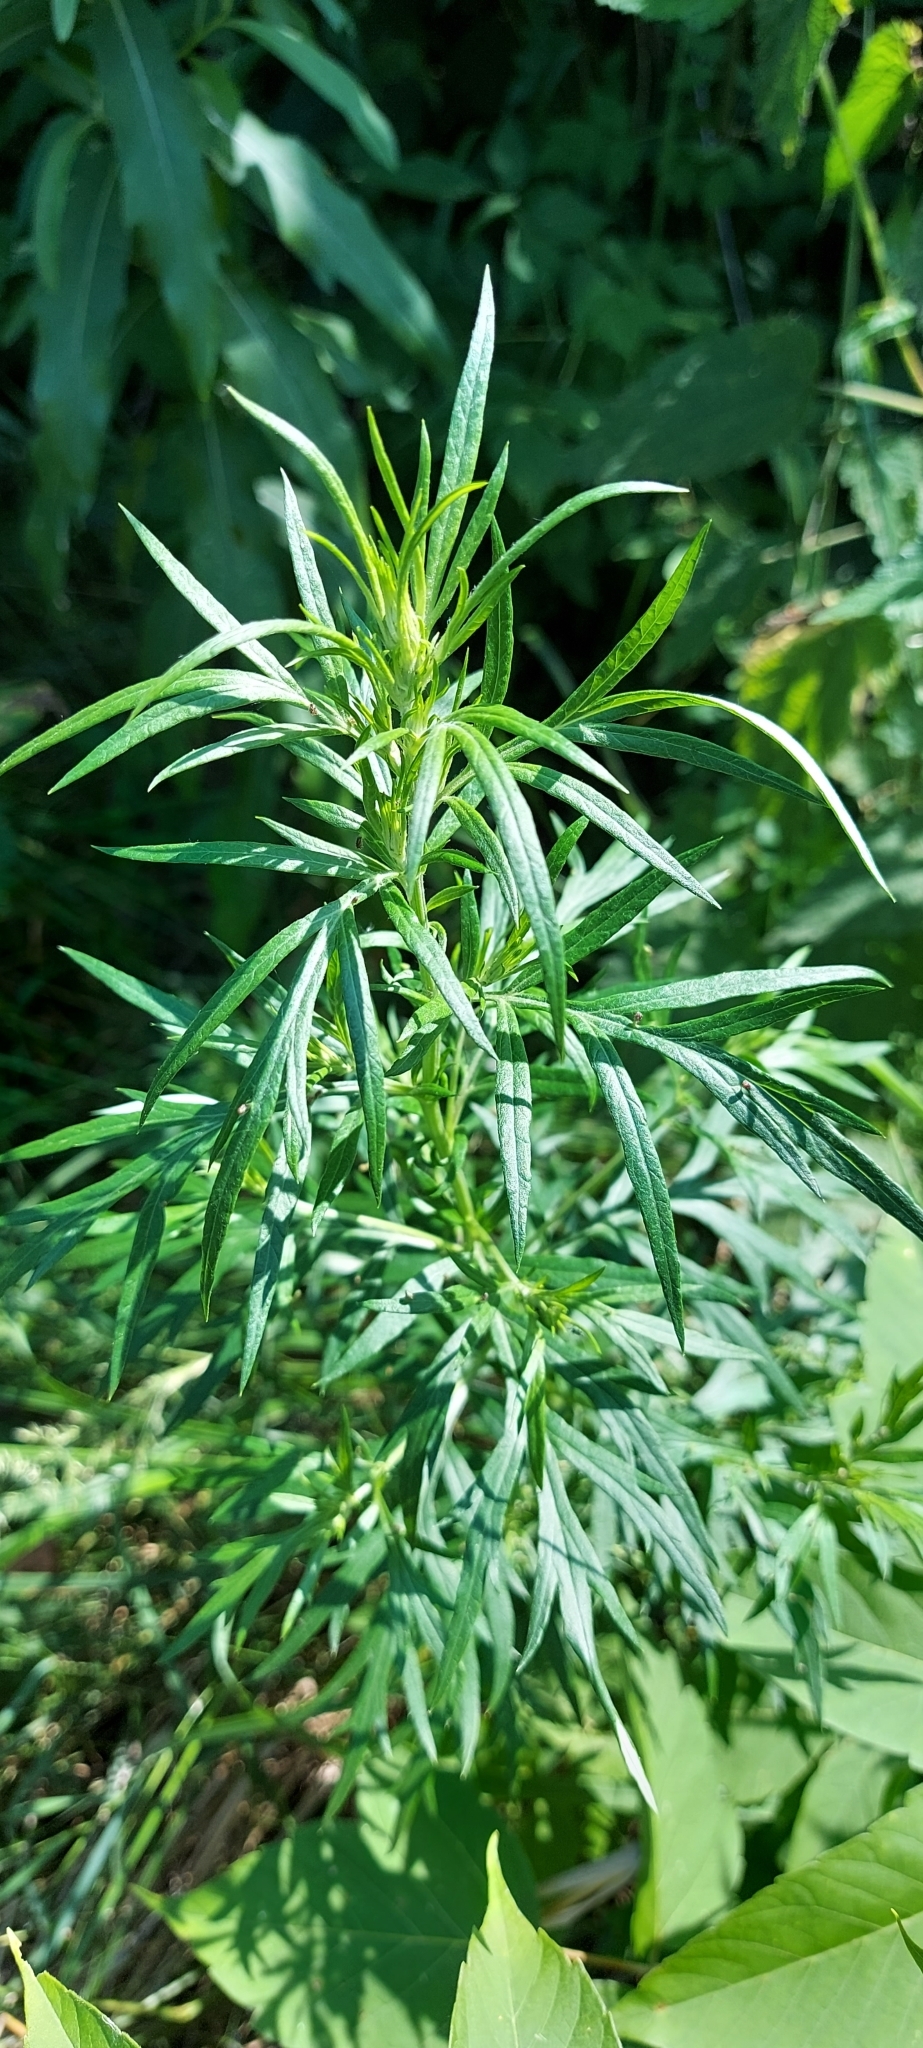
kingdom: Plantae
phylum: Tracheophyta
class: Magnoliopsida
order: Asterales
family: Asteraceae
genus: Artemisia
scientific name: Artemisia vulgaris
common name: Mugwort
